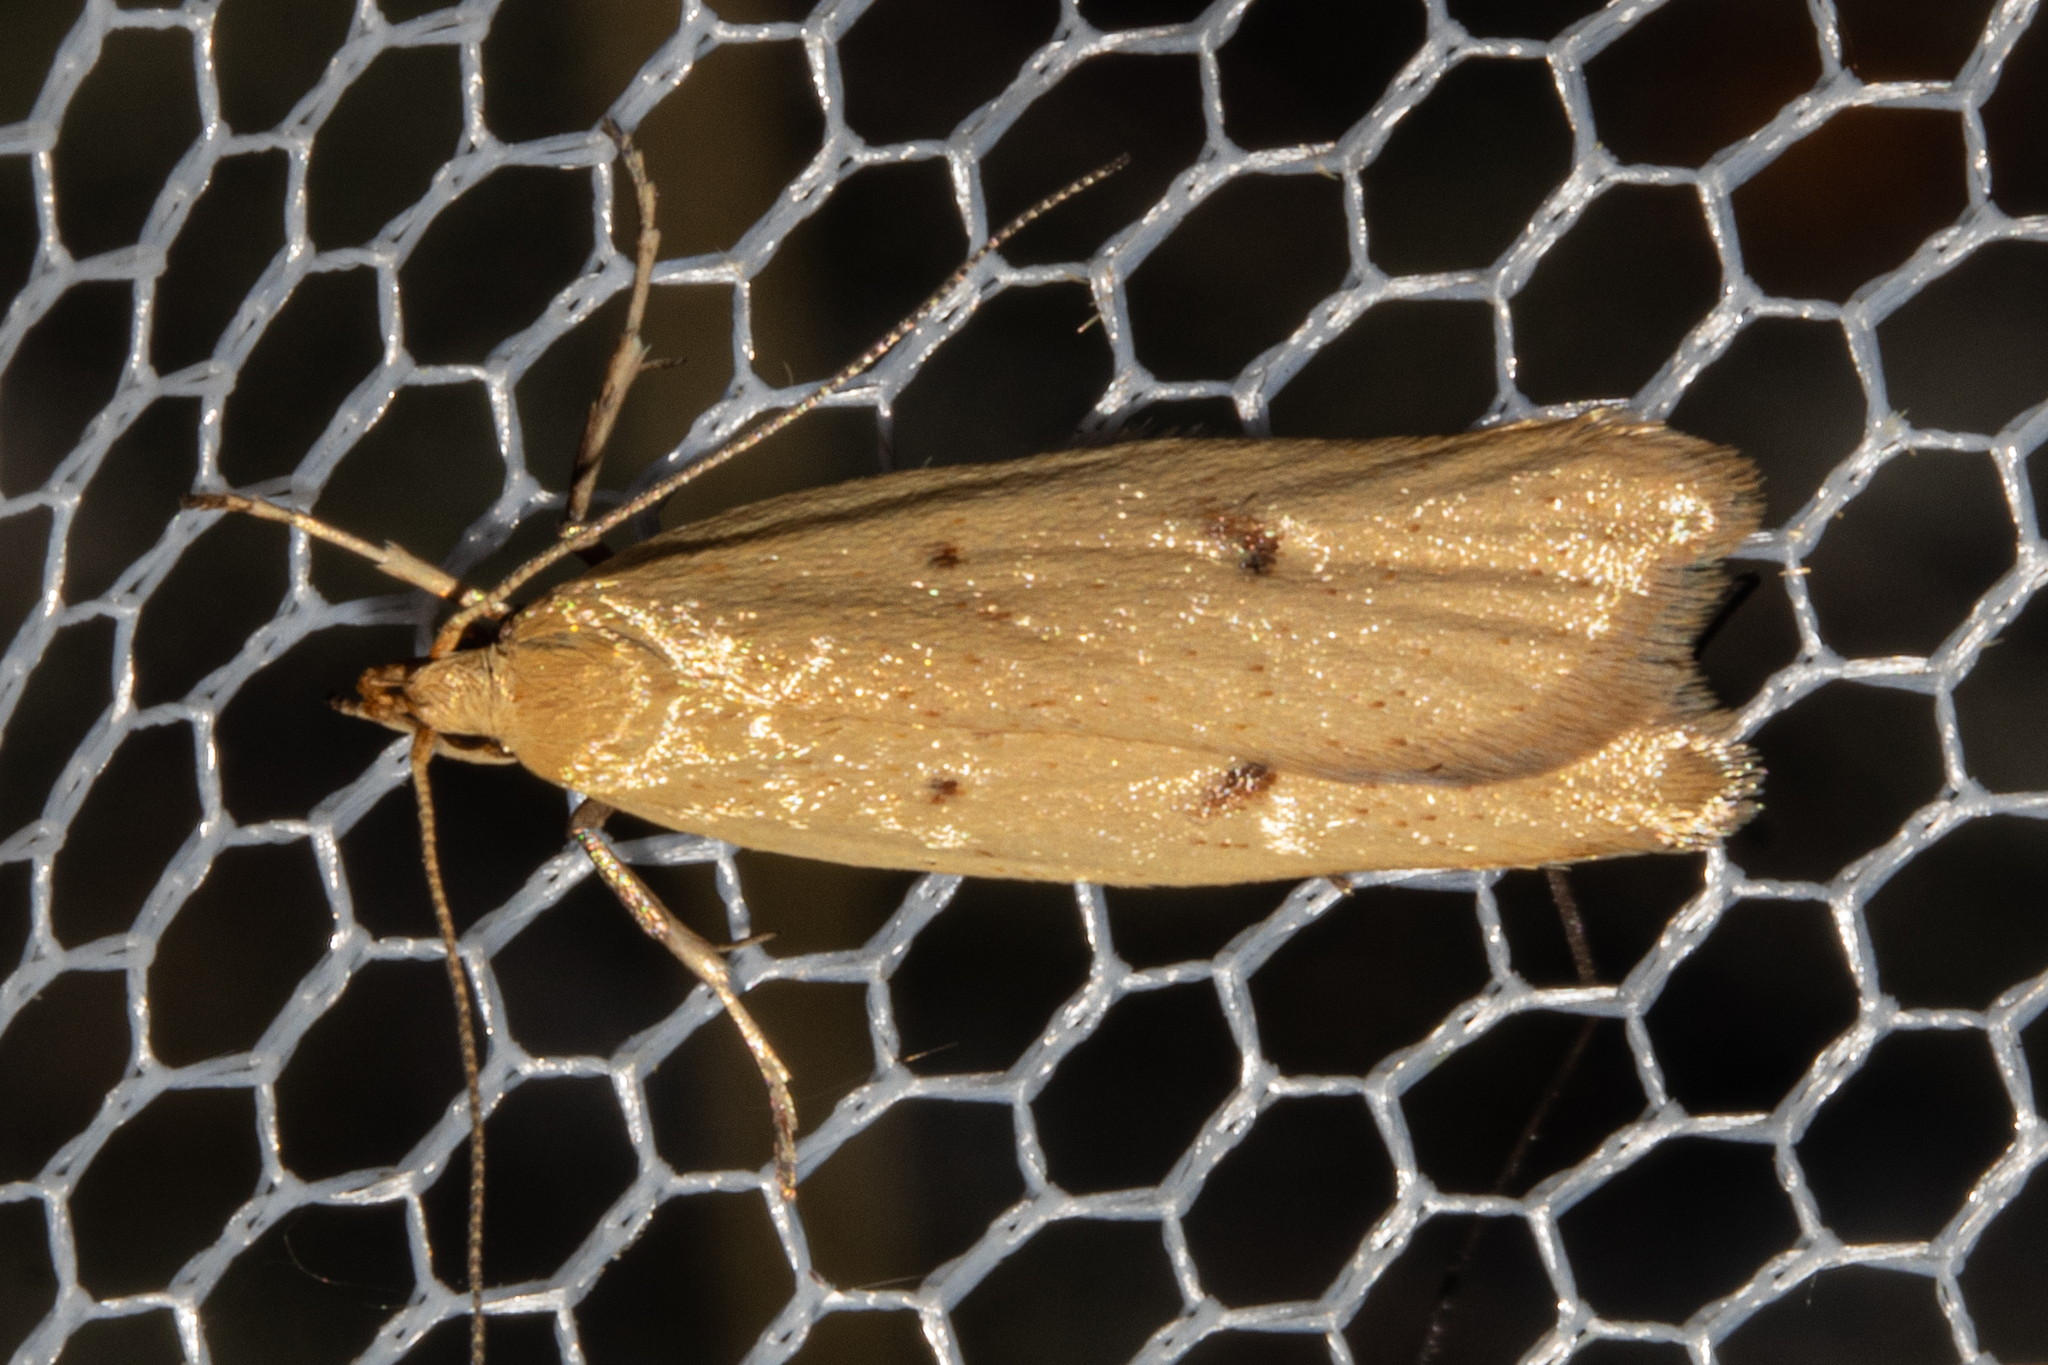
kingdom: Animalia
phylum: Arthropoda
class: Insecta
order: Lepidoptera
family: Oecophoridae
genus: Gymnobathra
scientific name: Gymnobathra sarcoxantha
